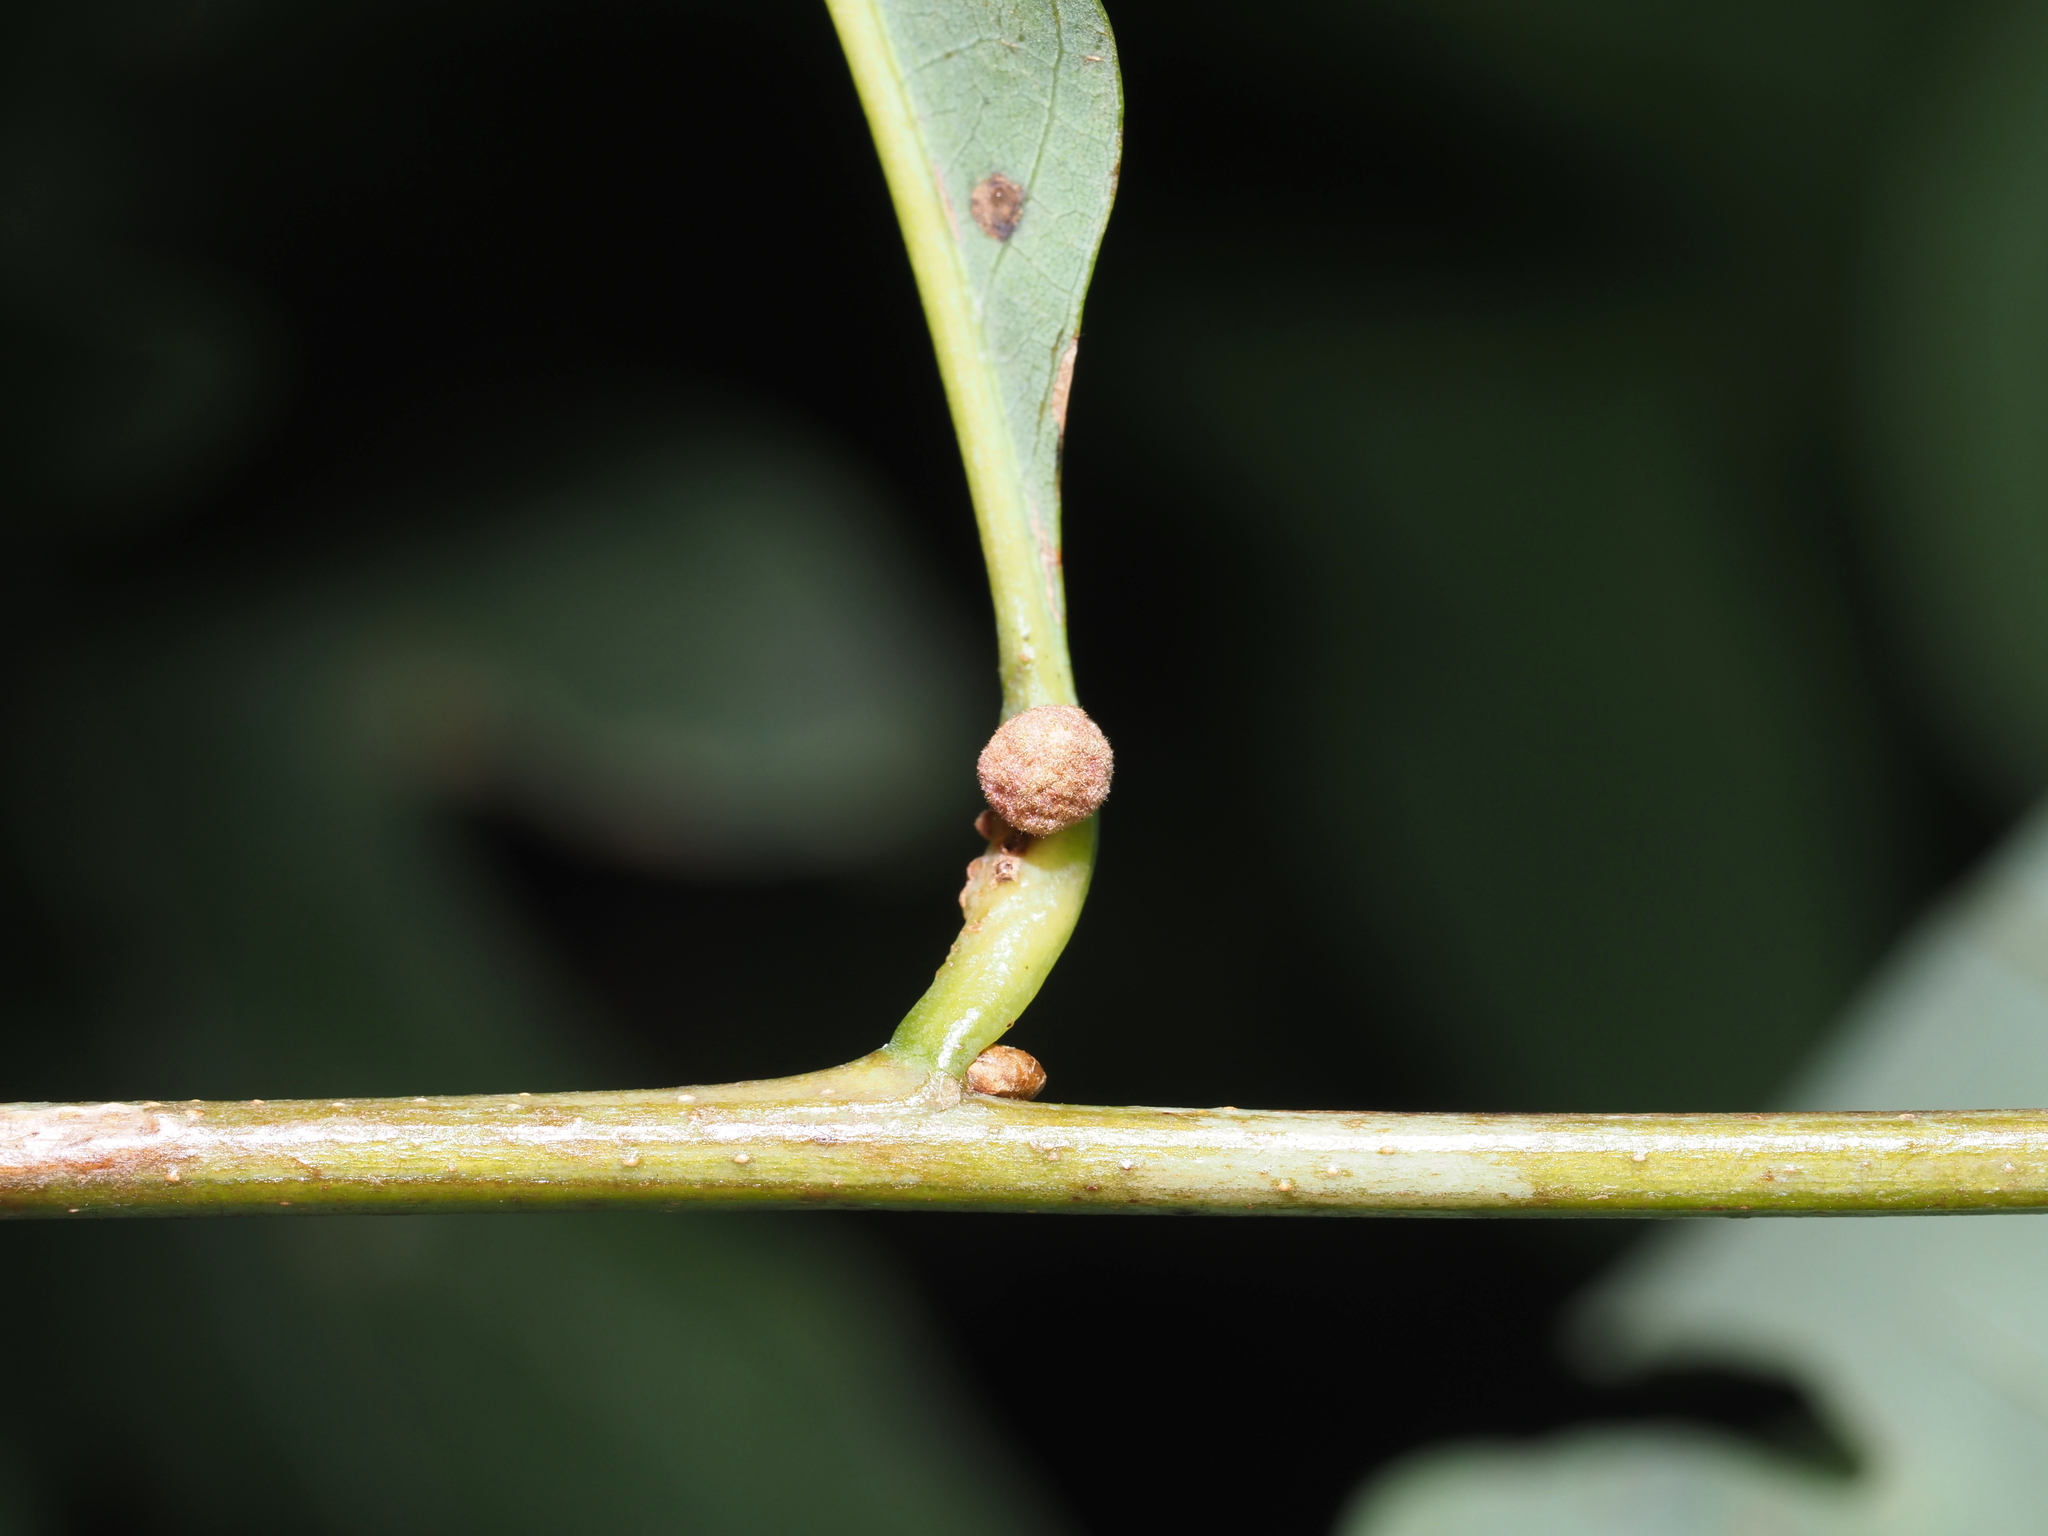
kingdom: Animalia
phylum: Arthropoda
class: Insecta
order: Hymenoptera
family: Cynipidae
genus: Andricus
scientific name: Andricus
